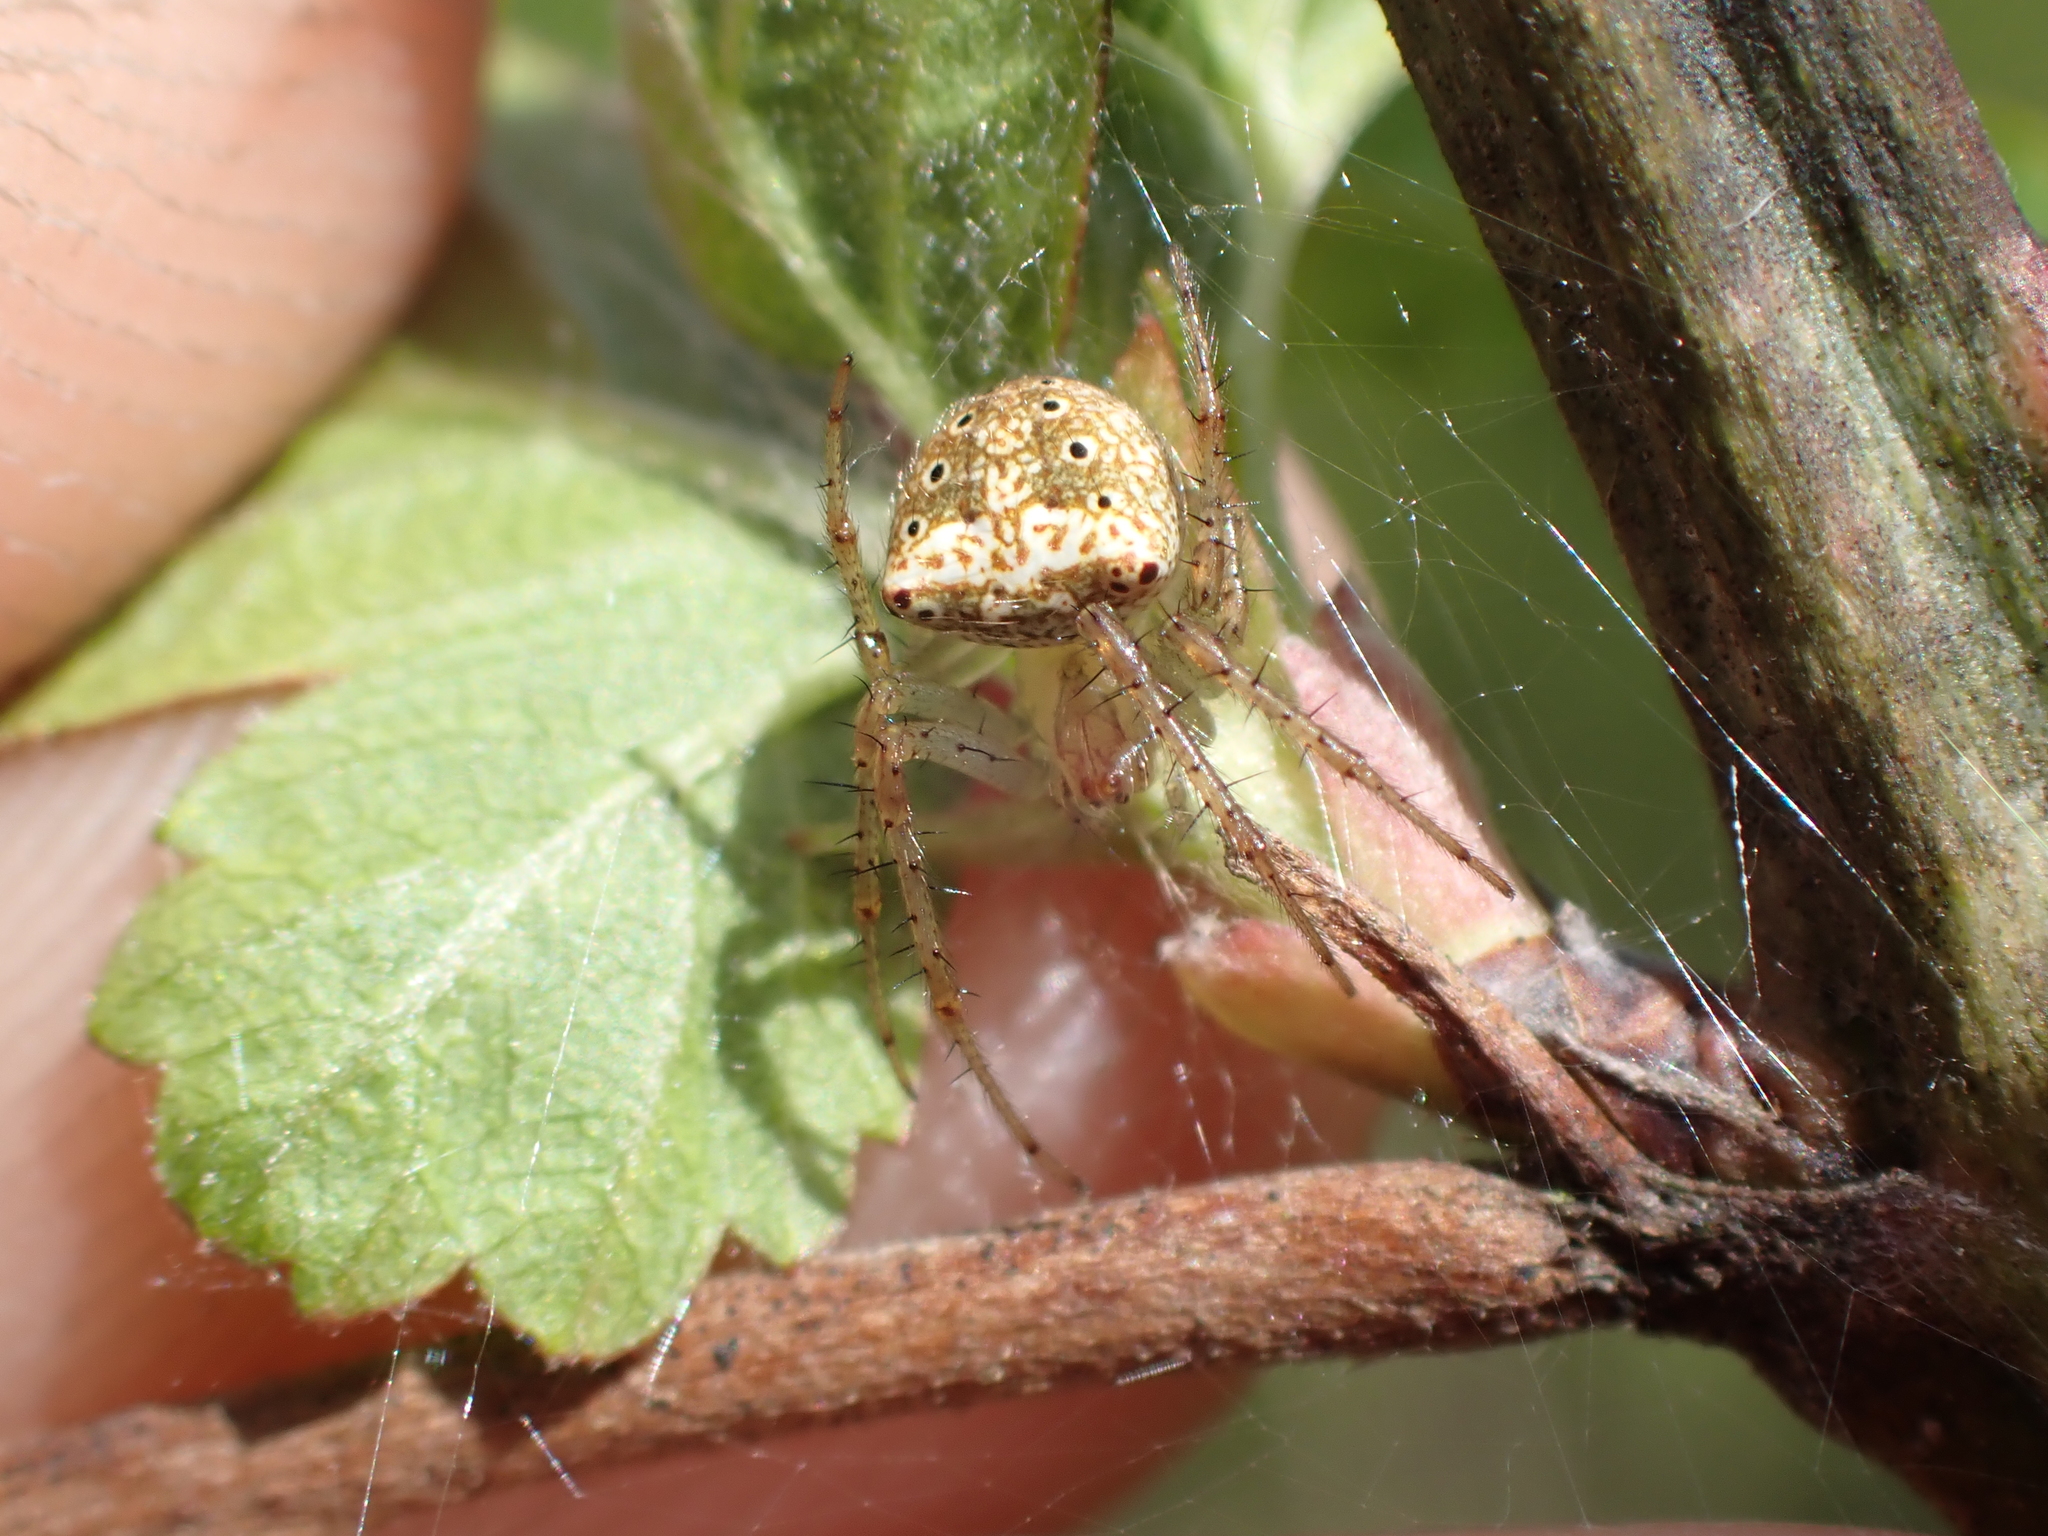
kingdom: Animalia
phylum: Arthropoda
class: Arachnida
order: Araneae
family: Araneidae
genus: Araneus
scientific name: Araneus partitus
